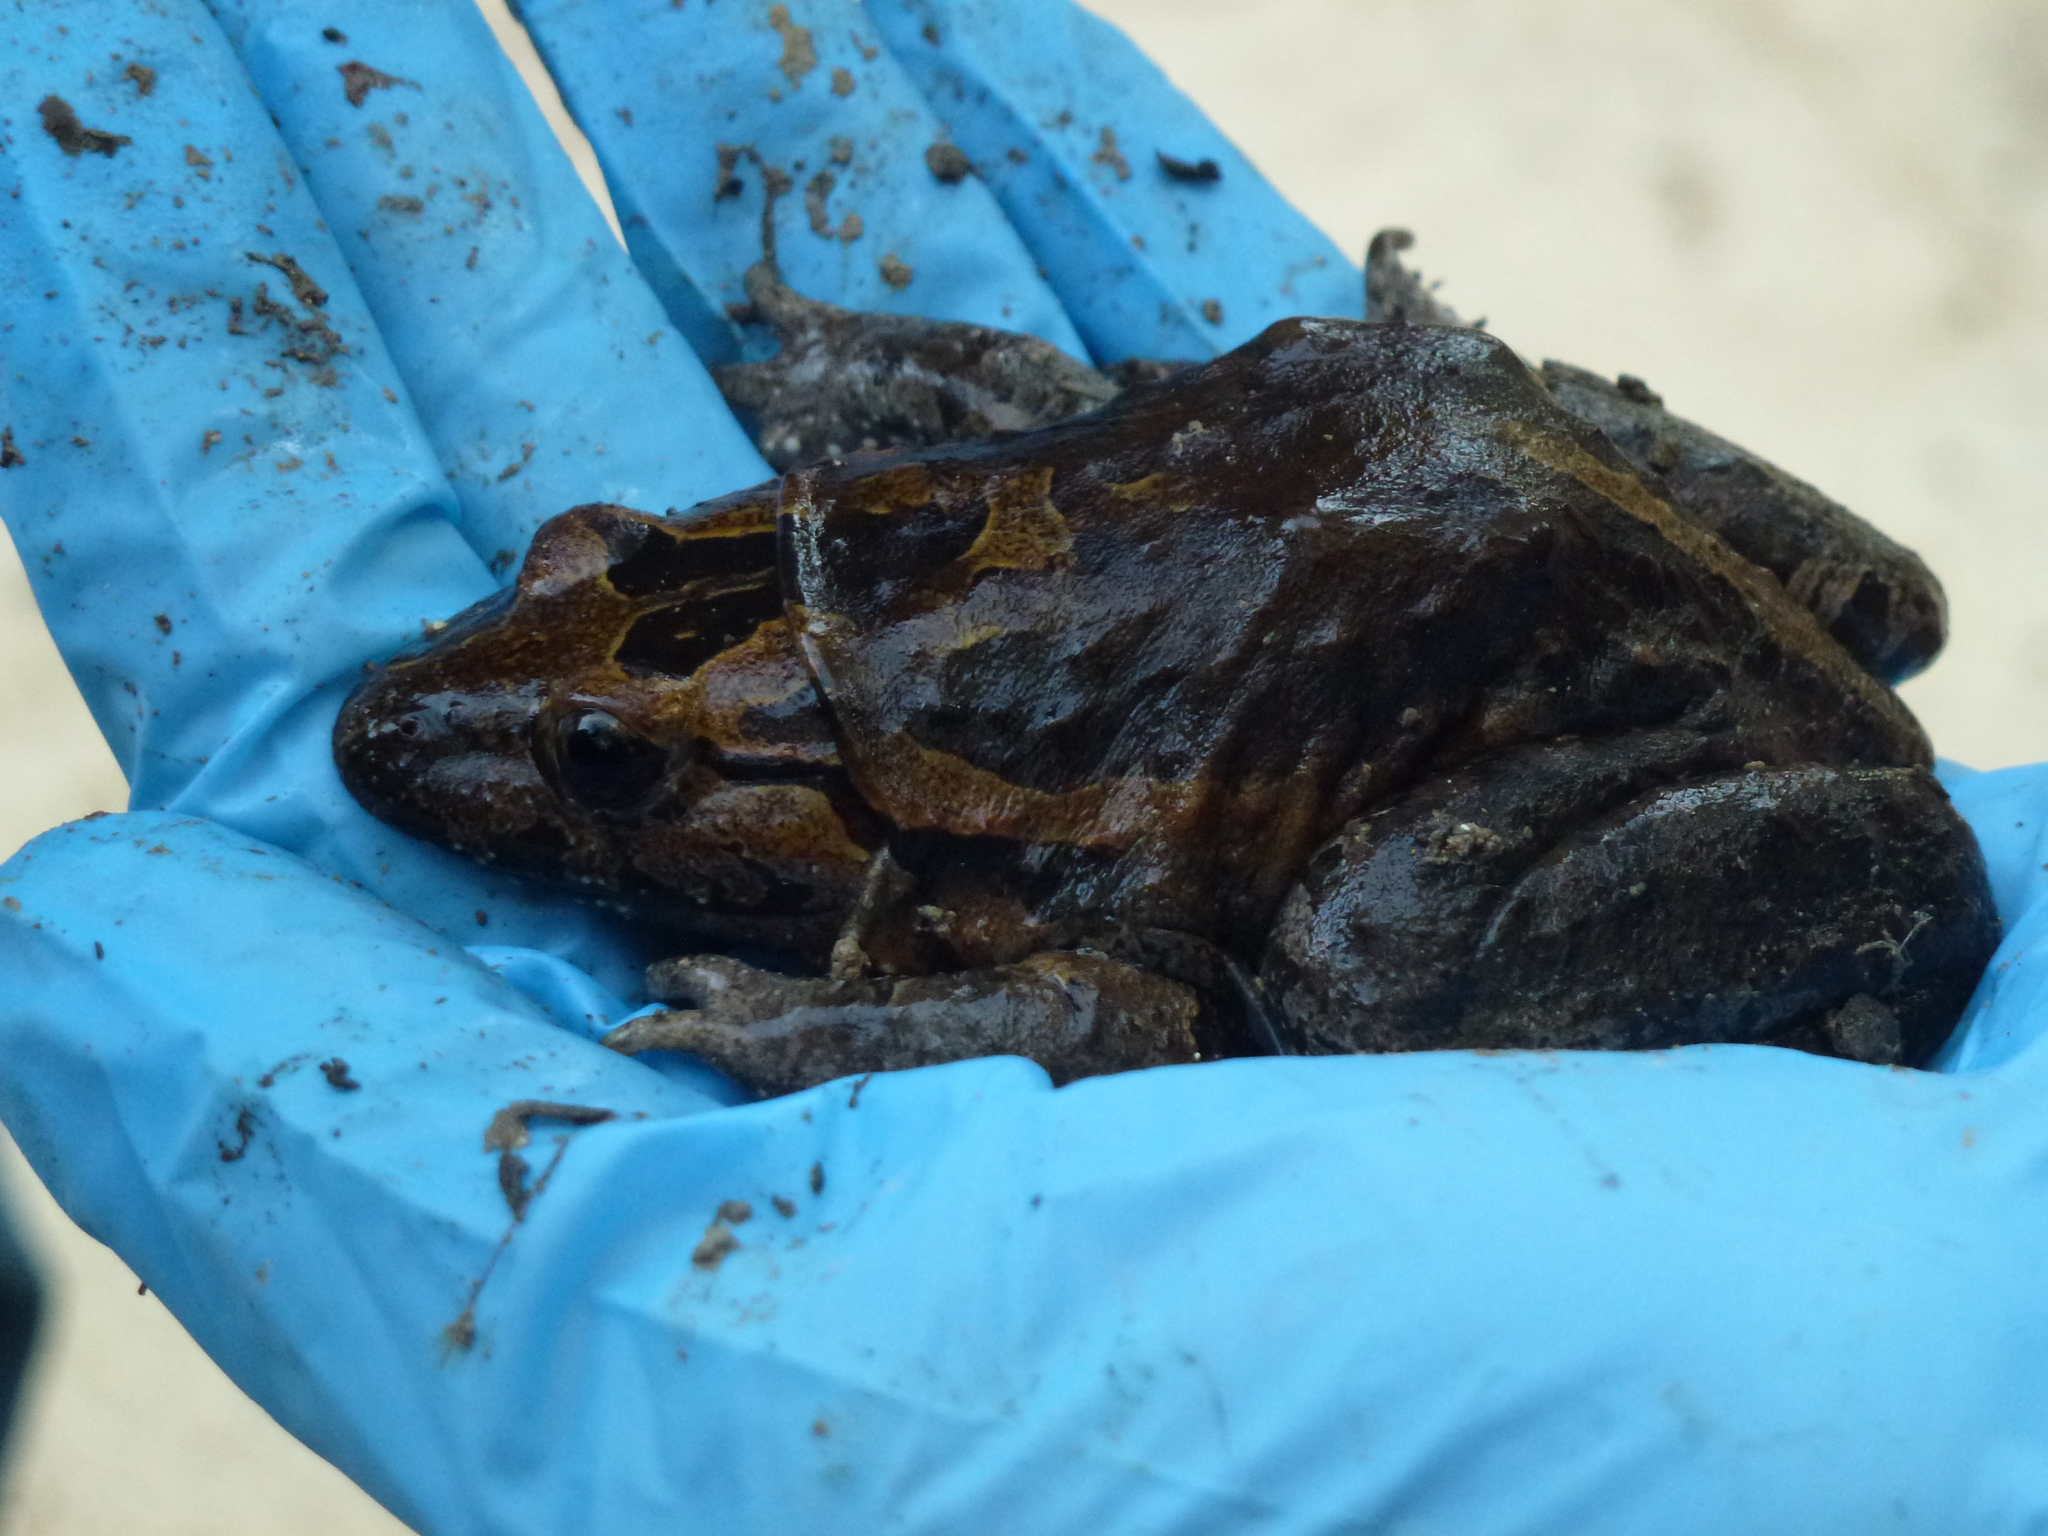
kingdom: Animalia
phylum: Chordata
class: Amphibia
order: Anura
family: Alytidae
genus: Latonia
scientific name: Latonia nigriventer
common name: Hula painted frog
